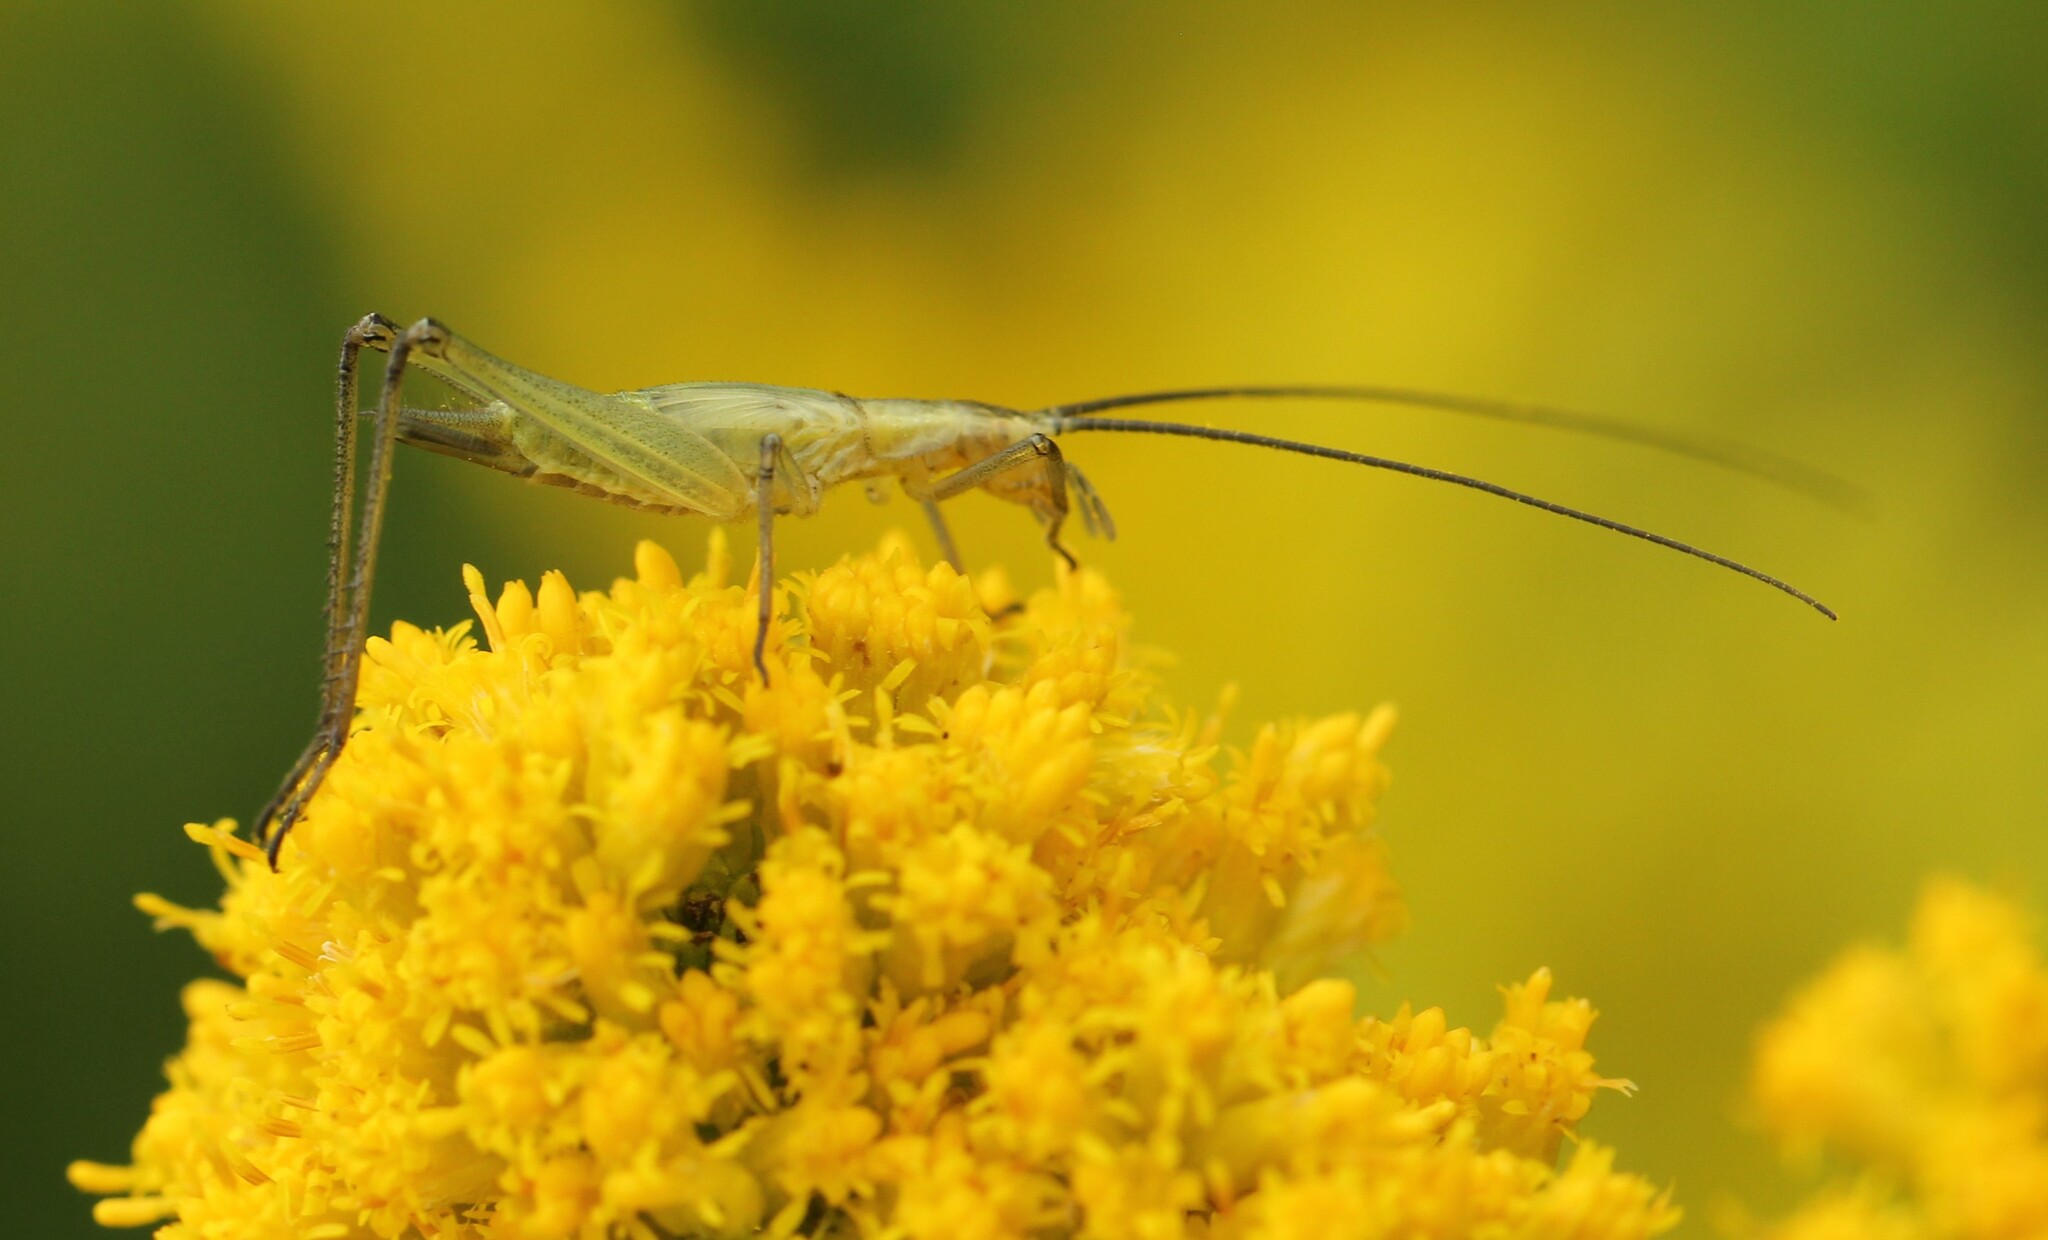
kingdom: Animalia
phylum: Arthropoda
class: Insecta
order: Orthoptera
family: Gryllidae
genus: Oecanthus
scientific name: Oecanthus nigricornis
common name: Black-horned tree cricket
